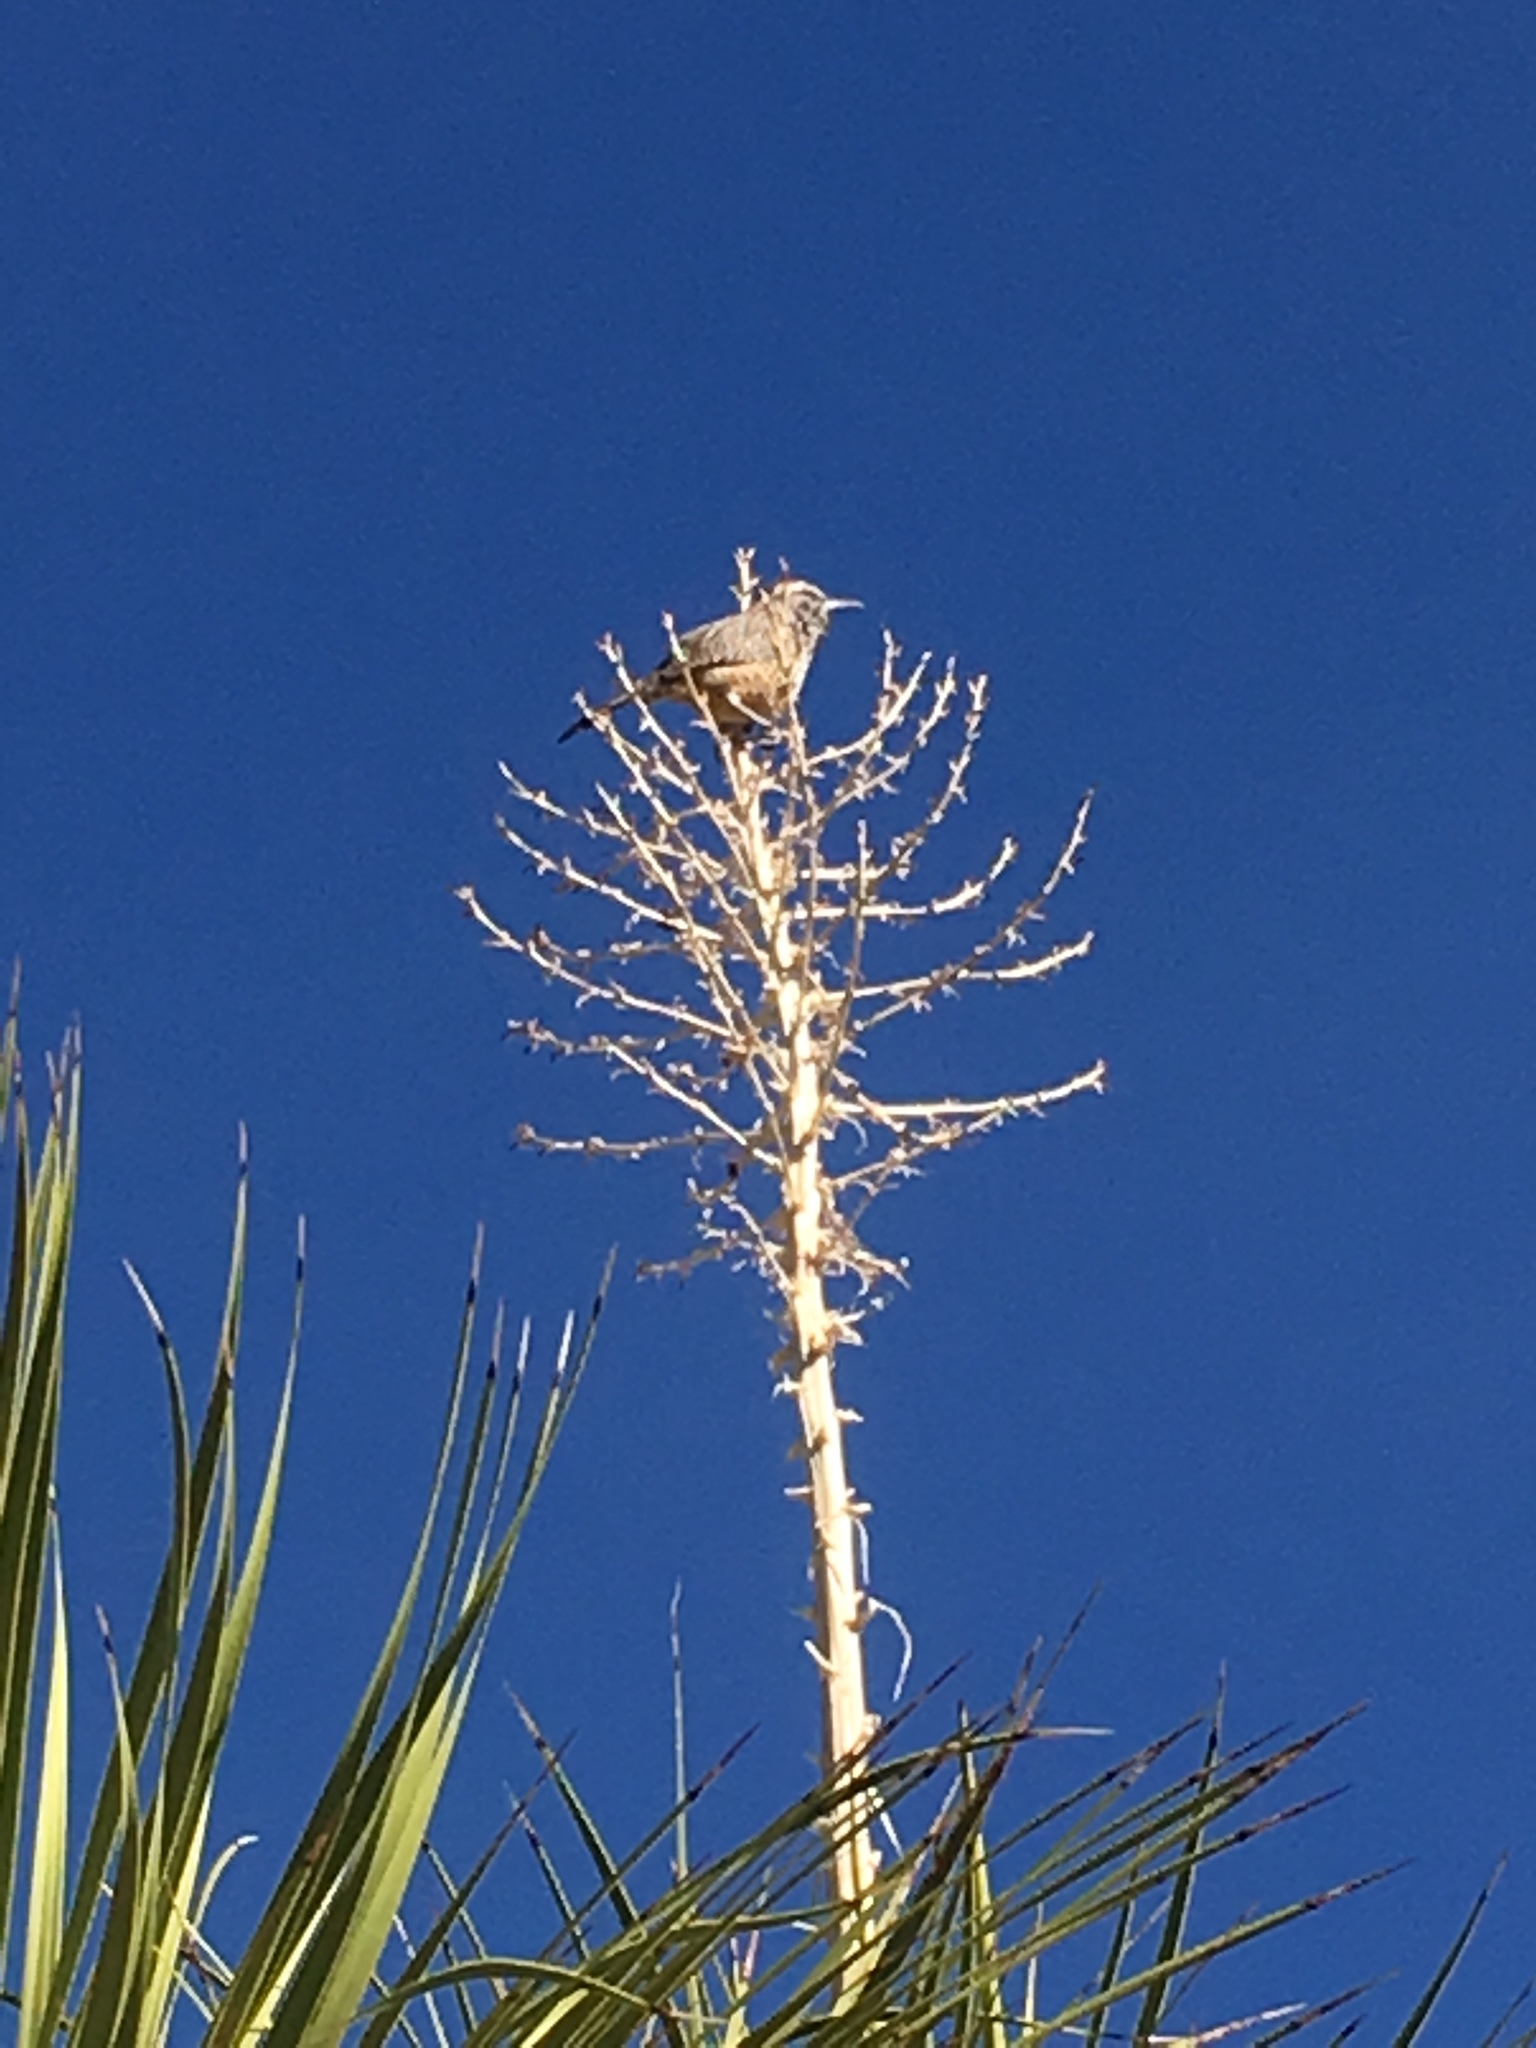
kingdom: Animalia
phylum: Chordata
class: Aves
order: Passeriformes
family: Troglodytidae
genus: Campylorhynchus
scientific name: Campylorhynchus brunneicapillus
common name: Cactus wren
